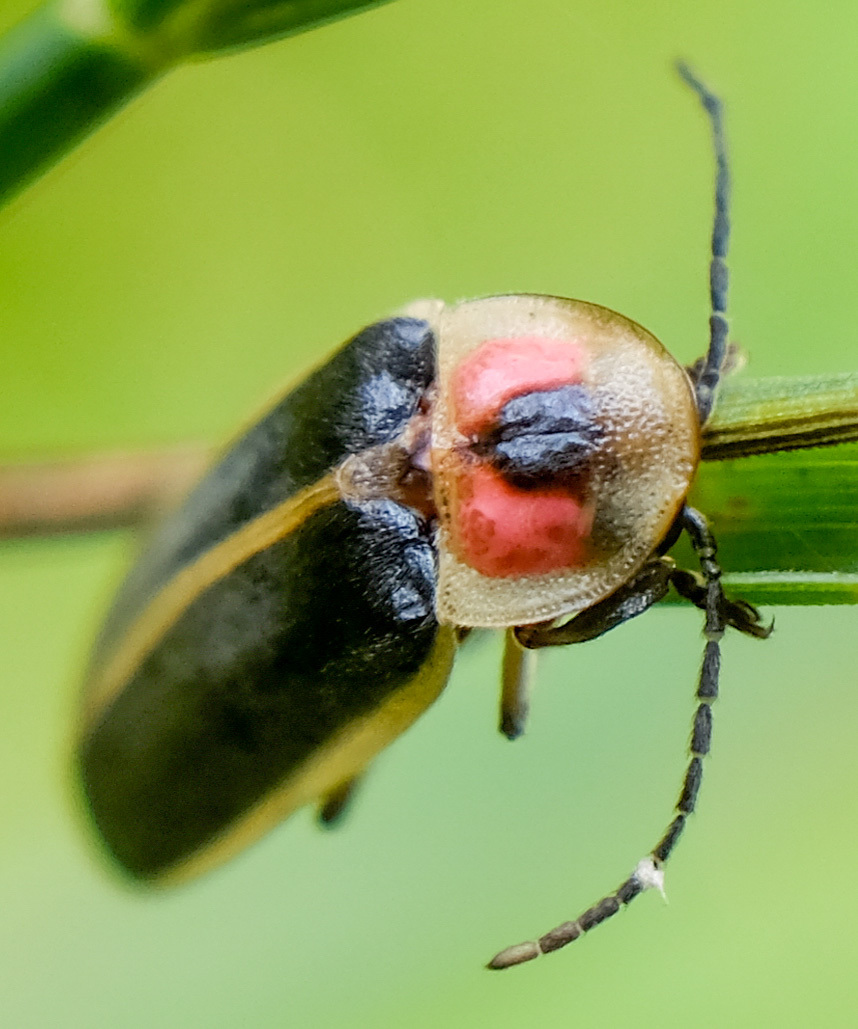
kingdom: Animalia
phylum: Arthropoda
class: Insecta
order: Coleoptera
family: Lampyridae
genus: Photinus
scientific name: Photinus pyralis
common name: Big dipper firefly
